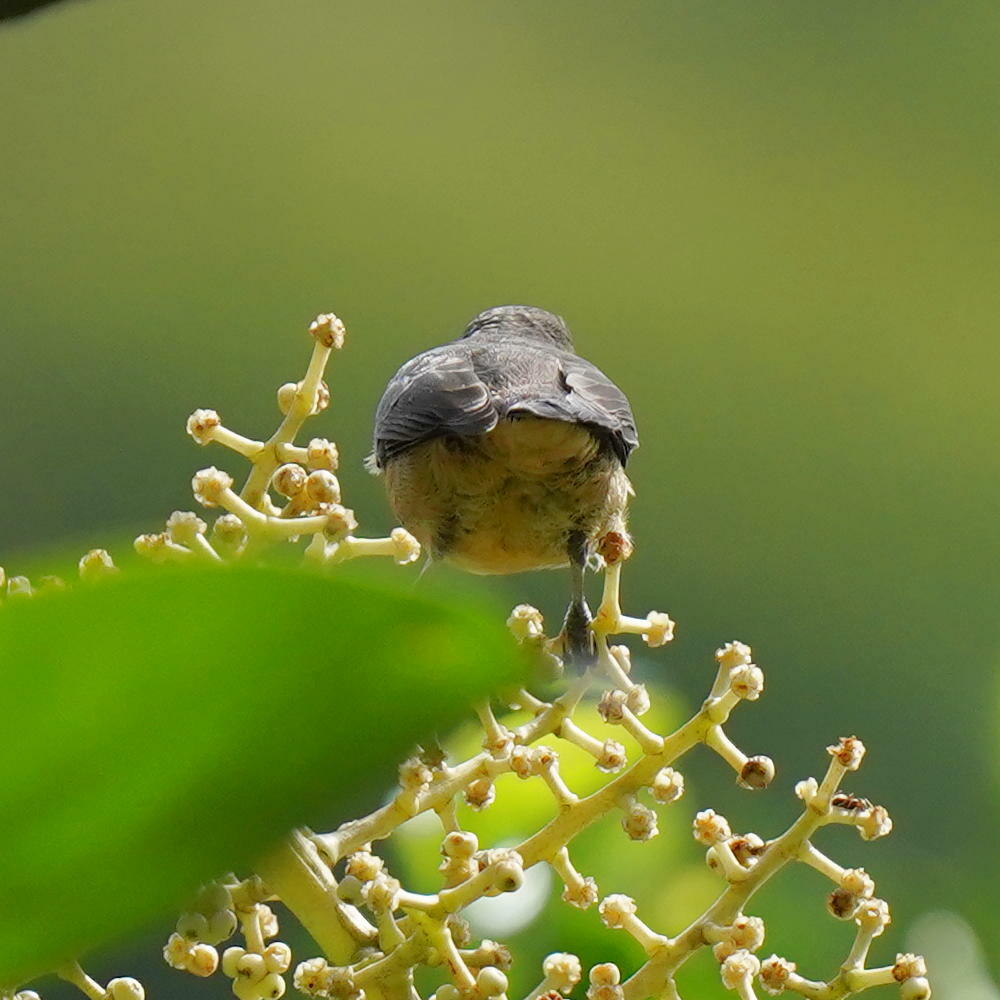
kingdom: Animalia
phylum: Chordata
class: Aves
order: Passeriformes
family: Thraupidae
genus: Coereba
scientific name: Coereba flaveola
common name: Bananaquit
